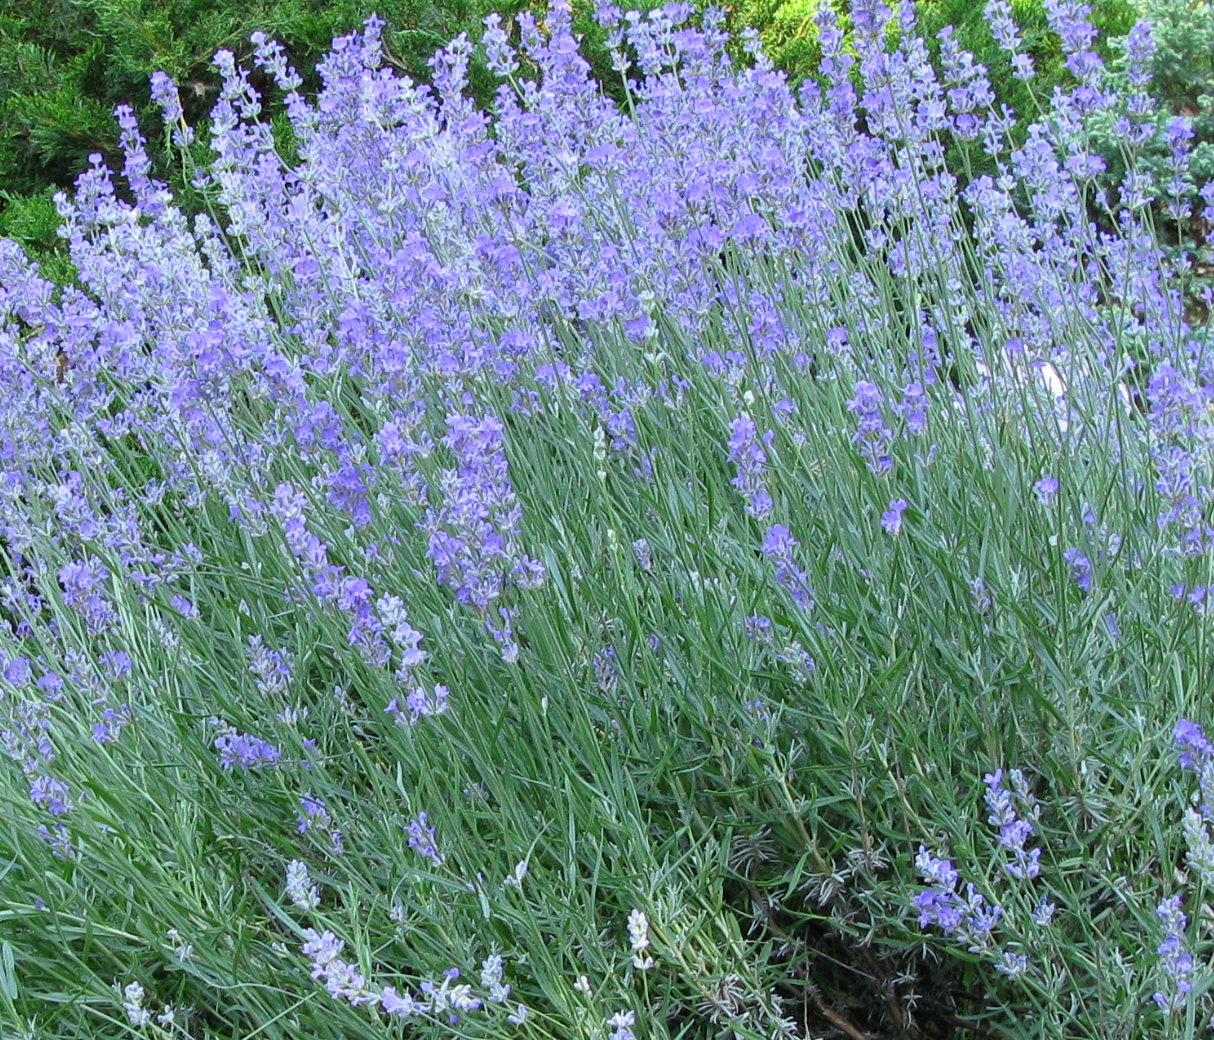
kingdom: Plantae
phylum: Tracheophyta
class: Magnoliopsida
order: Lamiales
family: Lamiaceae
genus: Lavandula
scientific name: Lavandula angustifolia
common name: Garden lavender
